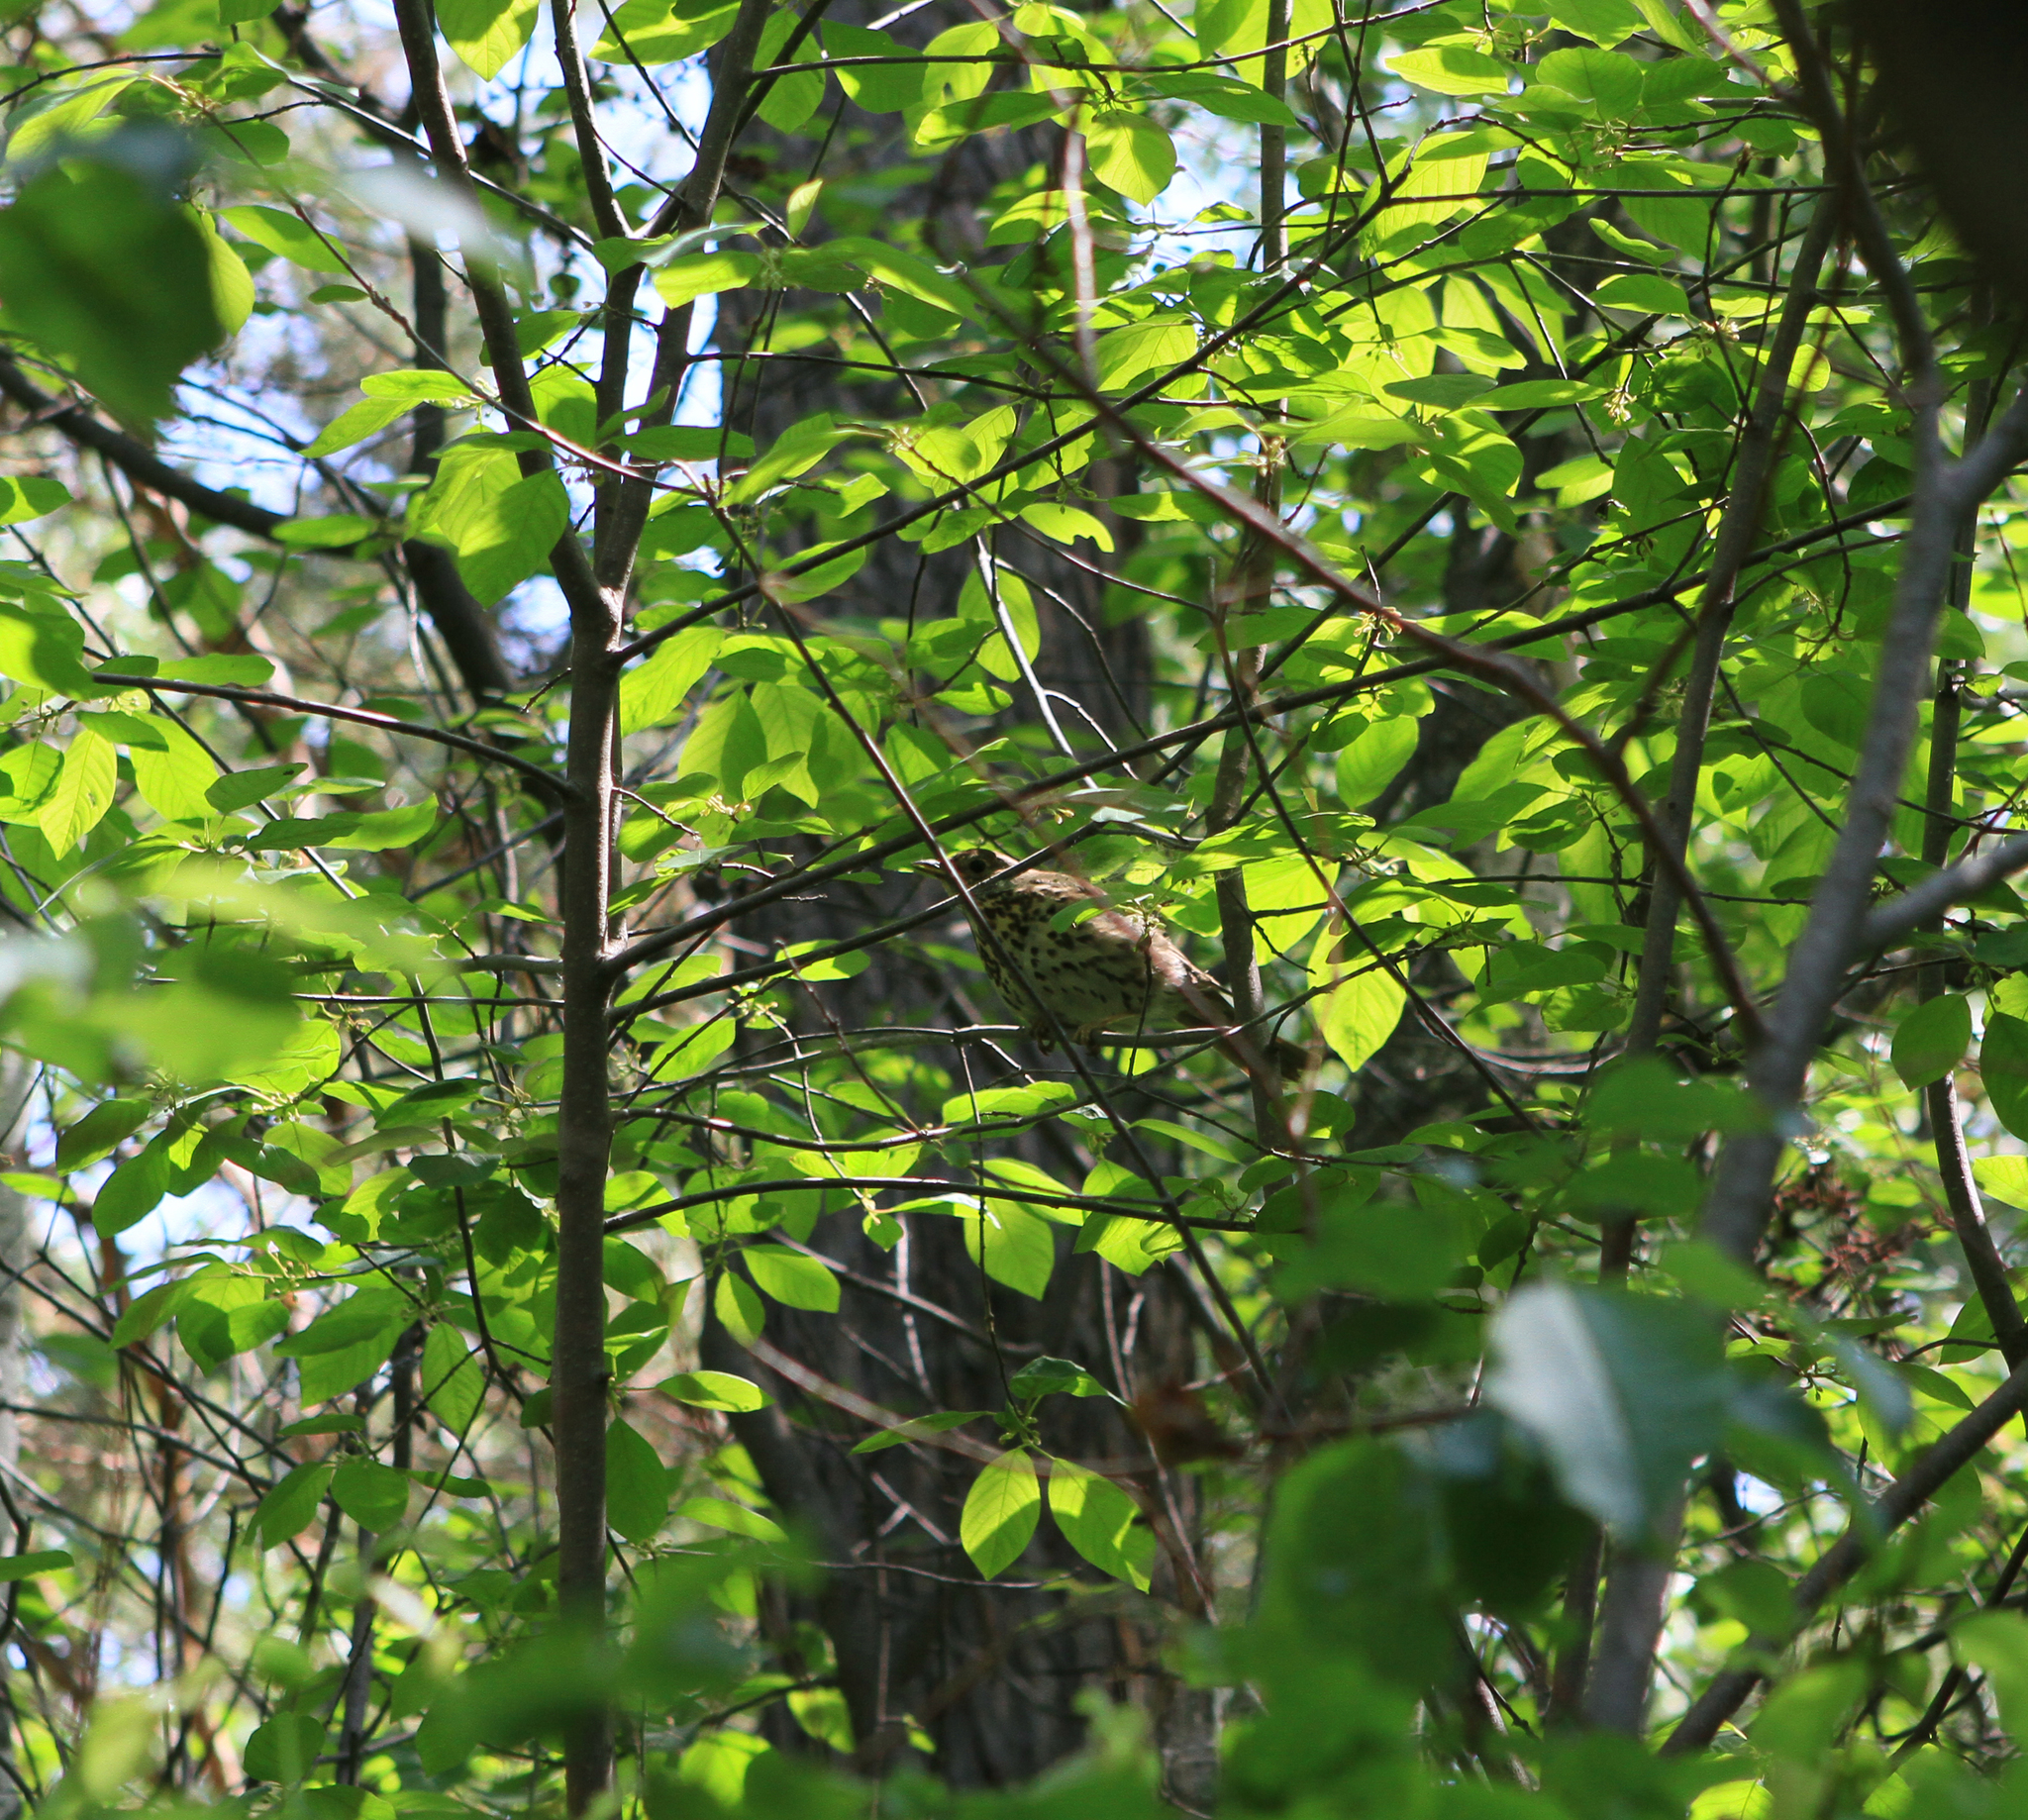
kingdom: Animalia
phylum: Chordata
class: Aves
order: Passeriformes
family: Turdidae
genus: Turdus
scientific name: Turdus philomelos
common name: Song thrush
